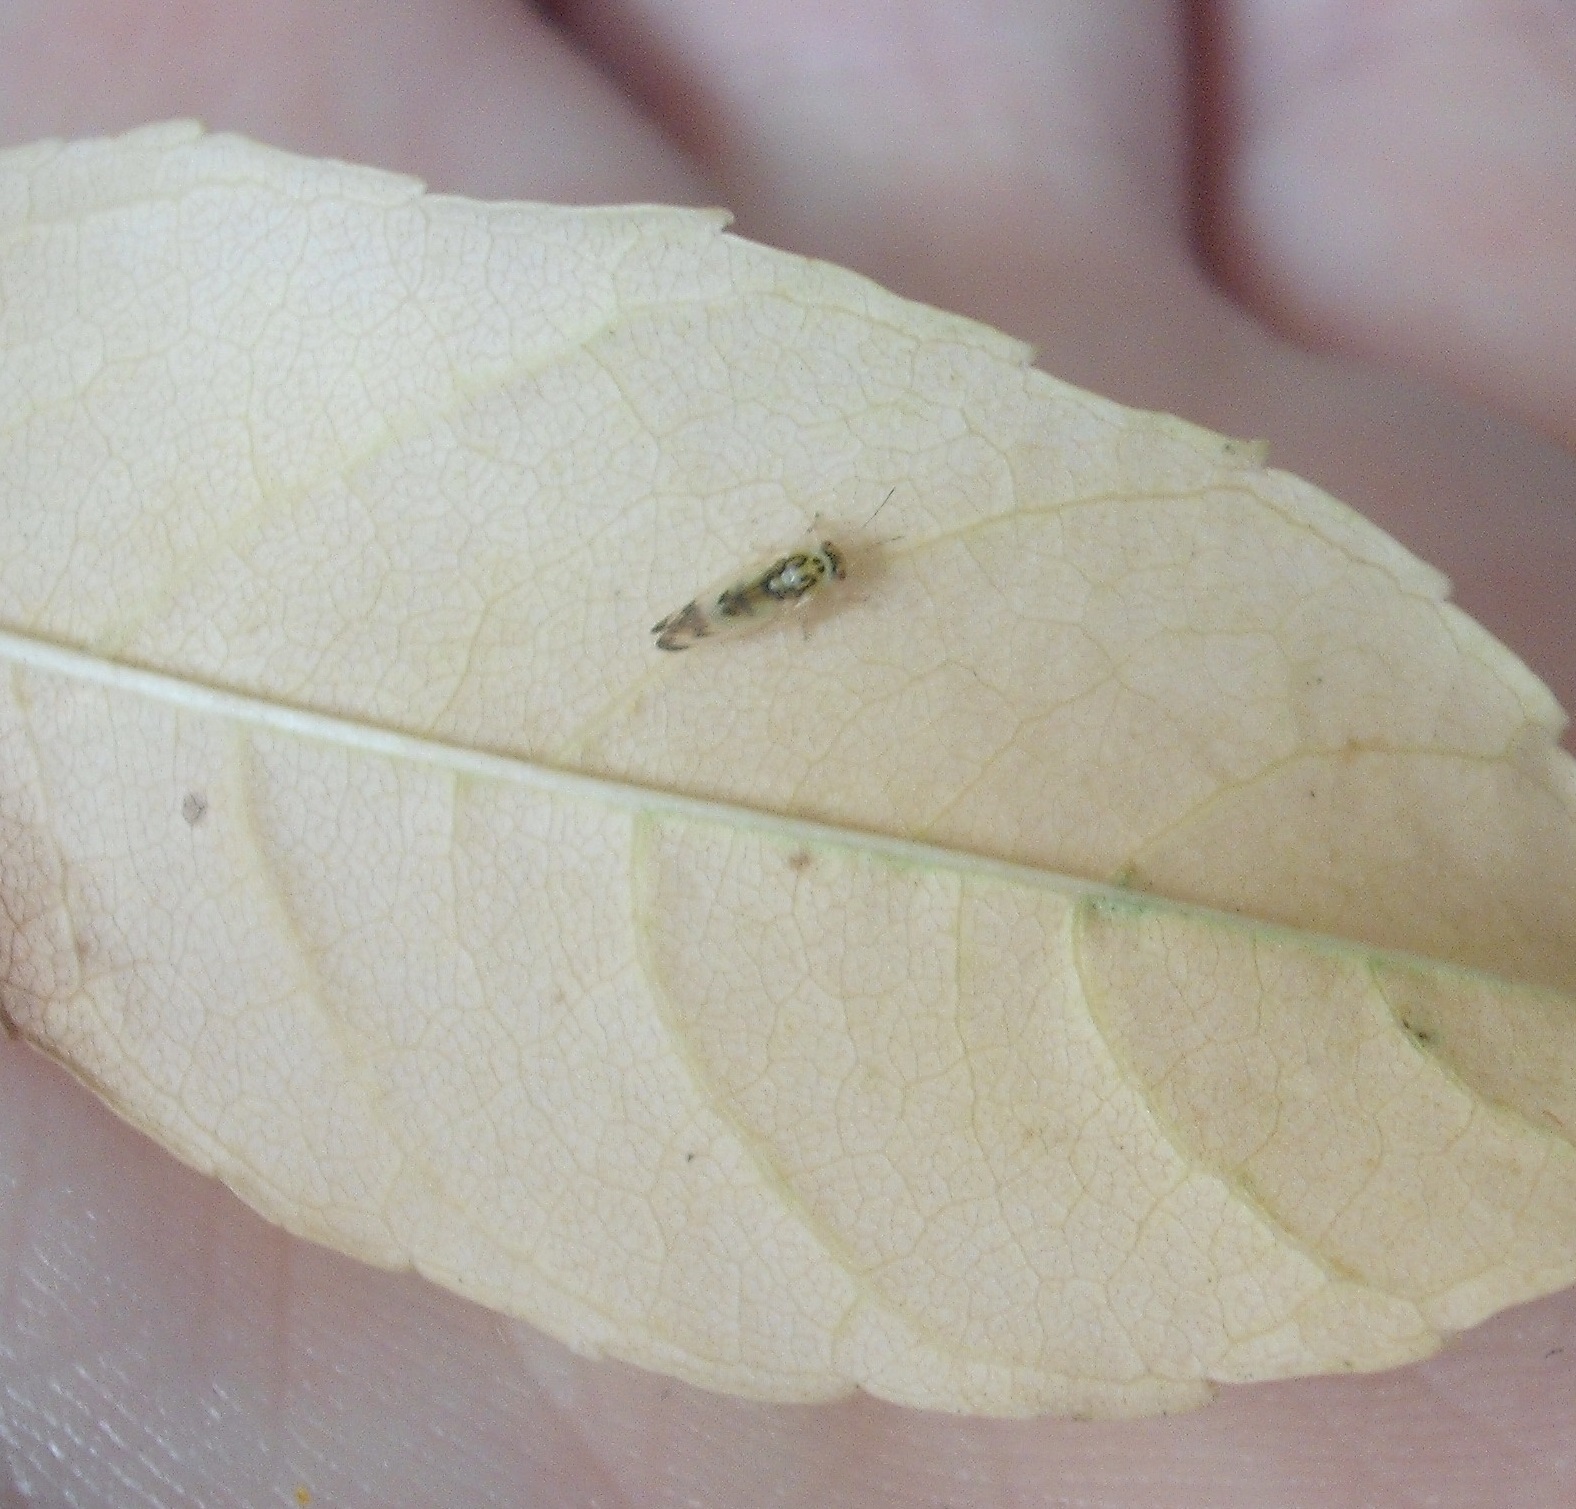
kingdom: Animalia
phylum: Arthropoda
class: Insecta
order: Hemiptera
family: Liviidae
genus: Psyllopsis
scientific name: Psyllopsis fraxini
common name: Jumping plant louse
